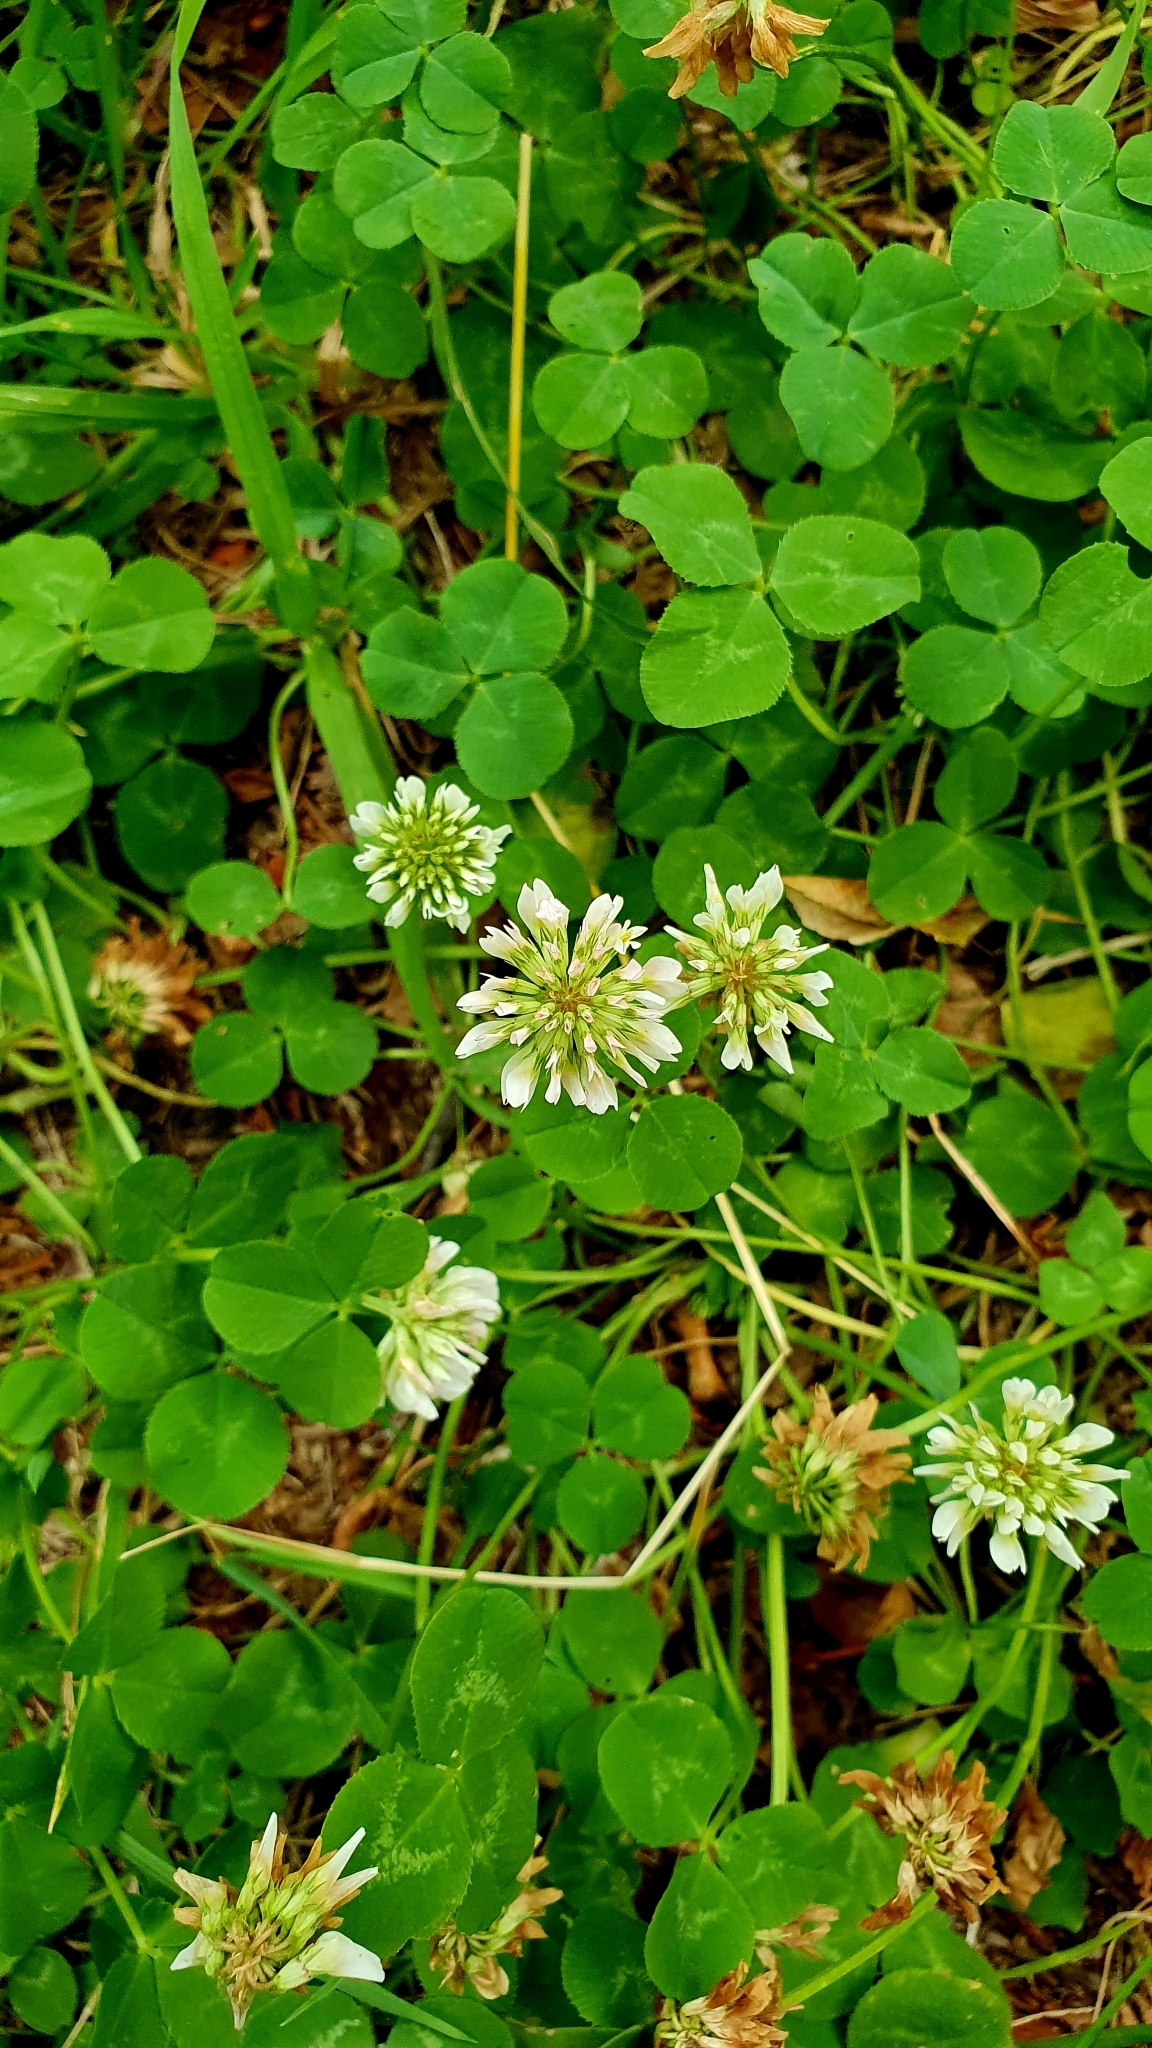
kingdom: Plantae
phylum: Tracheophyta
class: Magnoliopsida
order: Fabales
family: Fabaceae
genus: Trifolium
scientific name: Trifolium repens
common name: White clover
